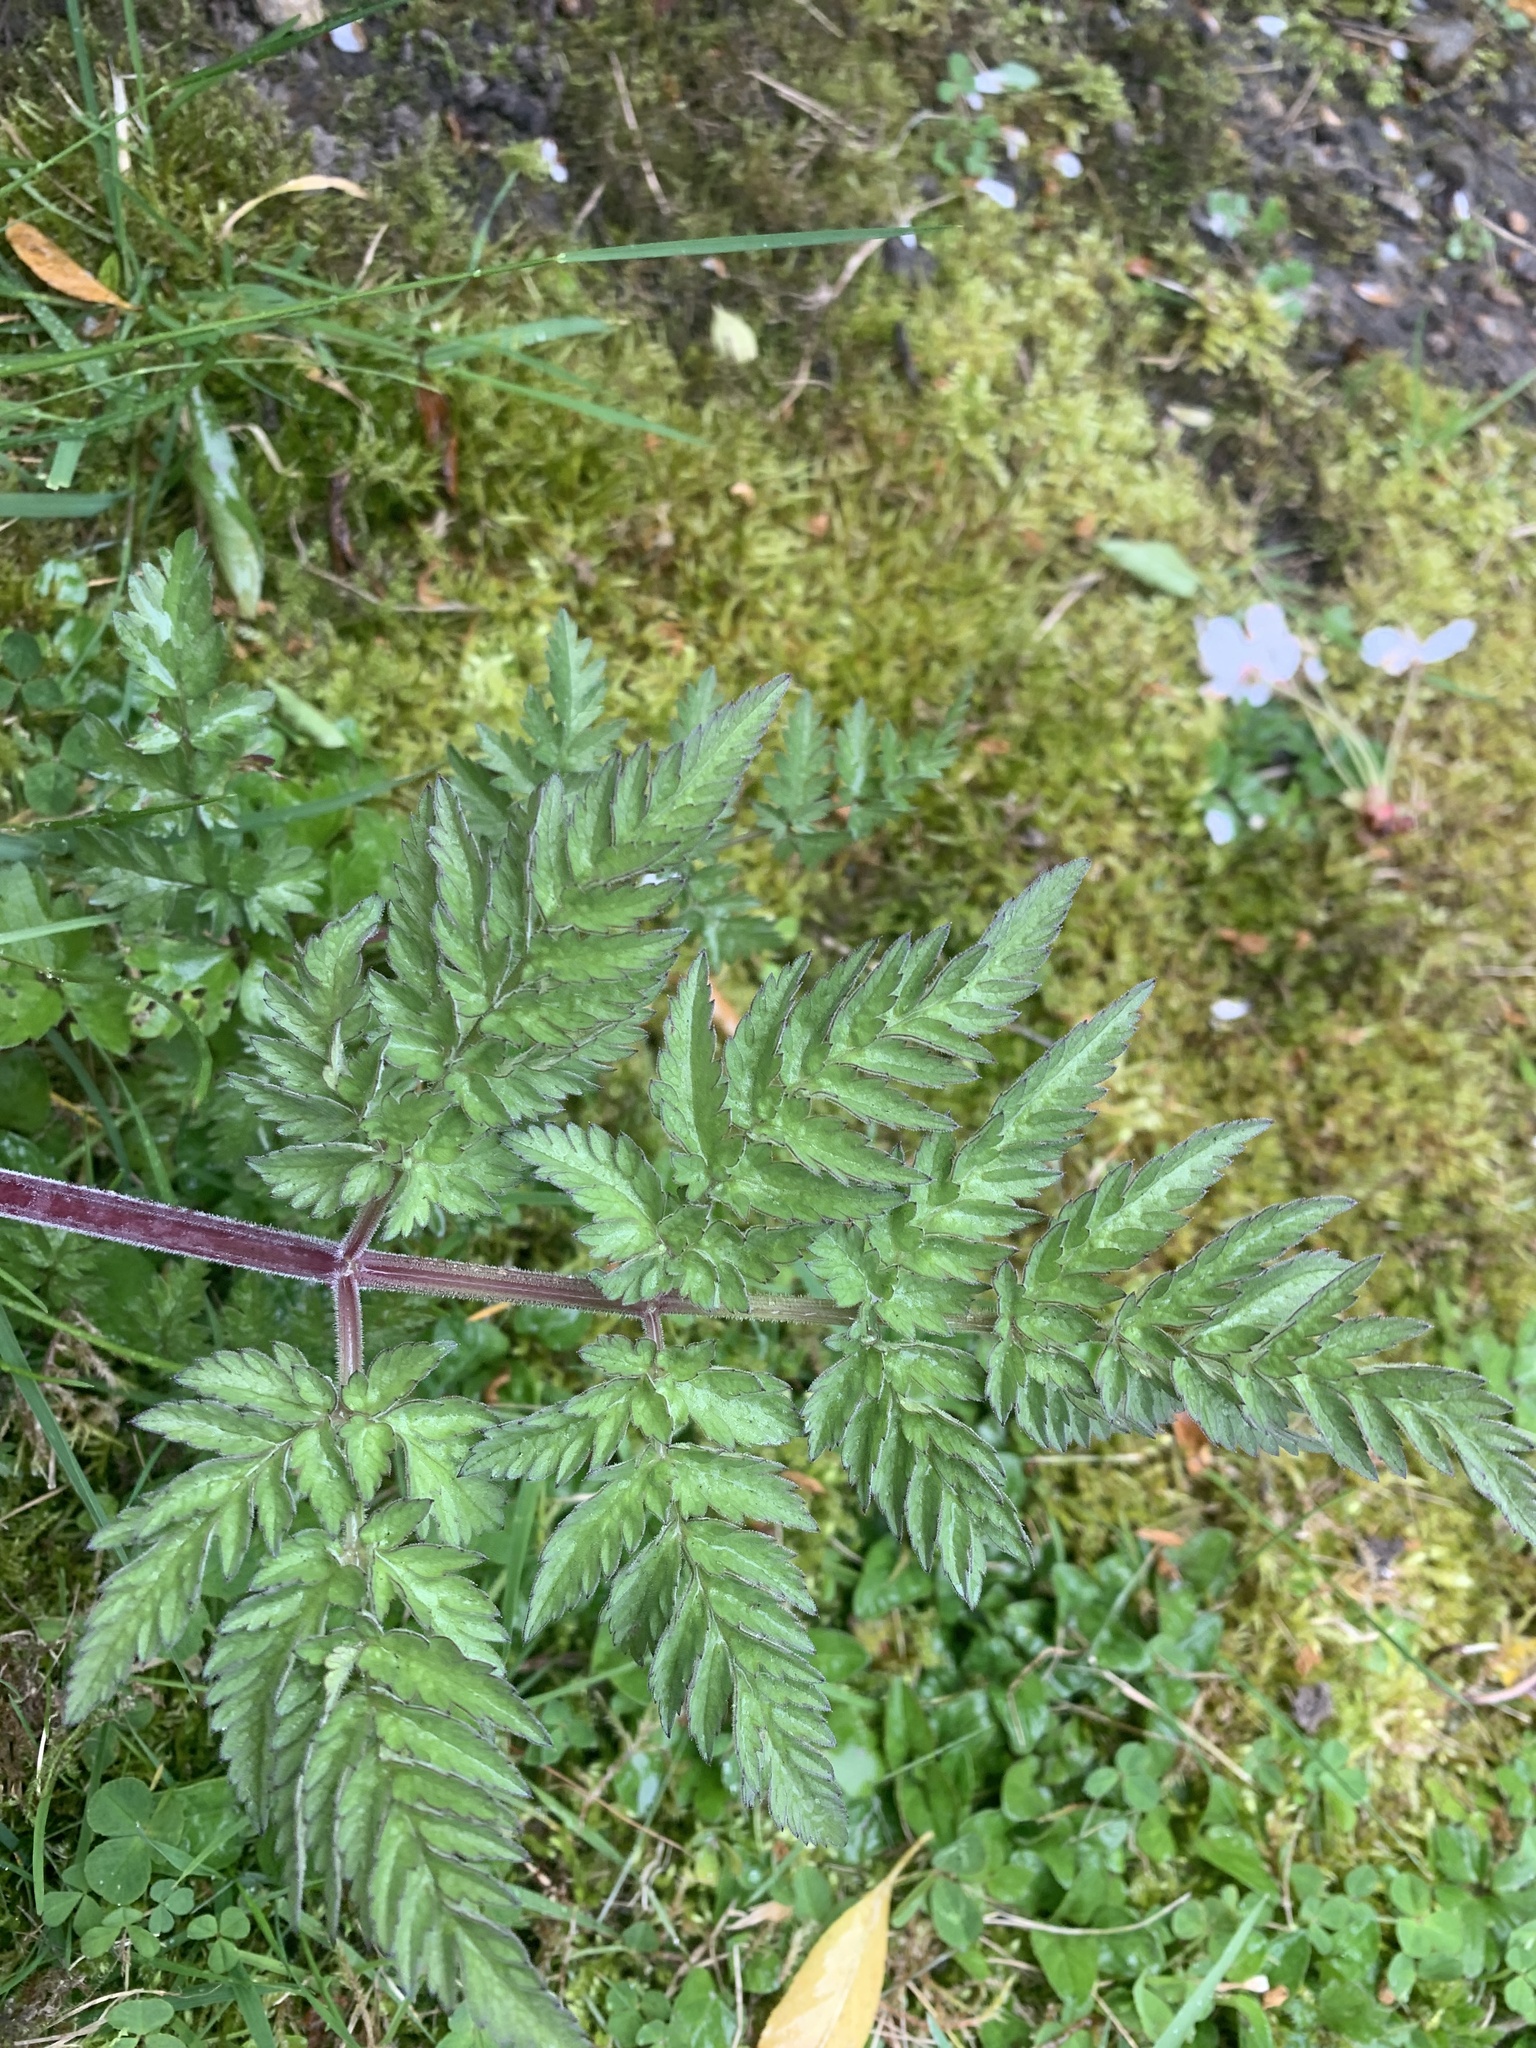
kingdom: Plantae
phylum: Tracheophyta
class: Magnoliopsida
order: Apiales
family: Apiaceae
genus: Anthriscus
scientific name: Anthriscus sylvestris
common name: Cow parsley
